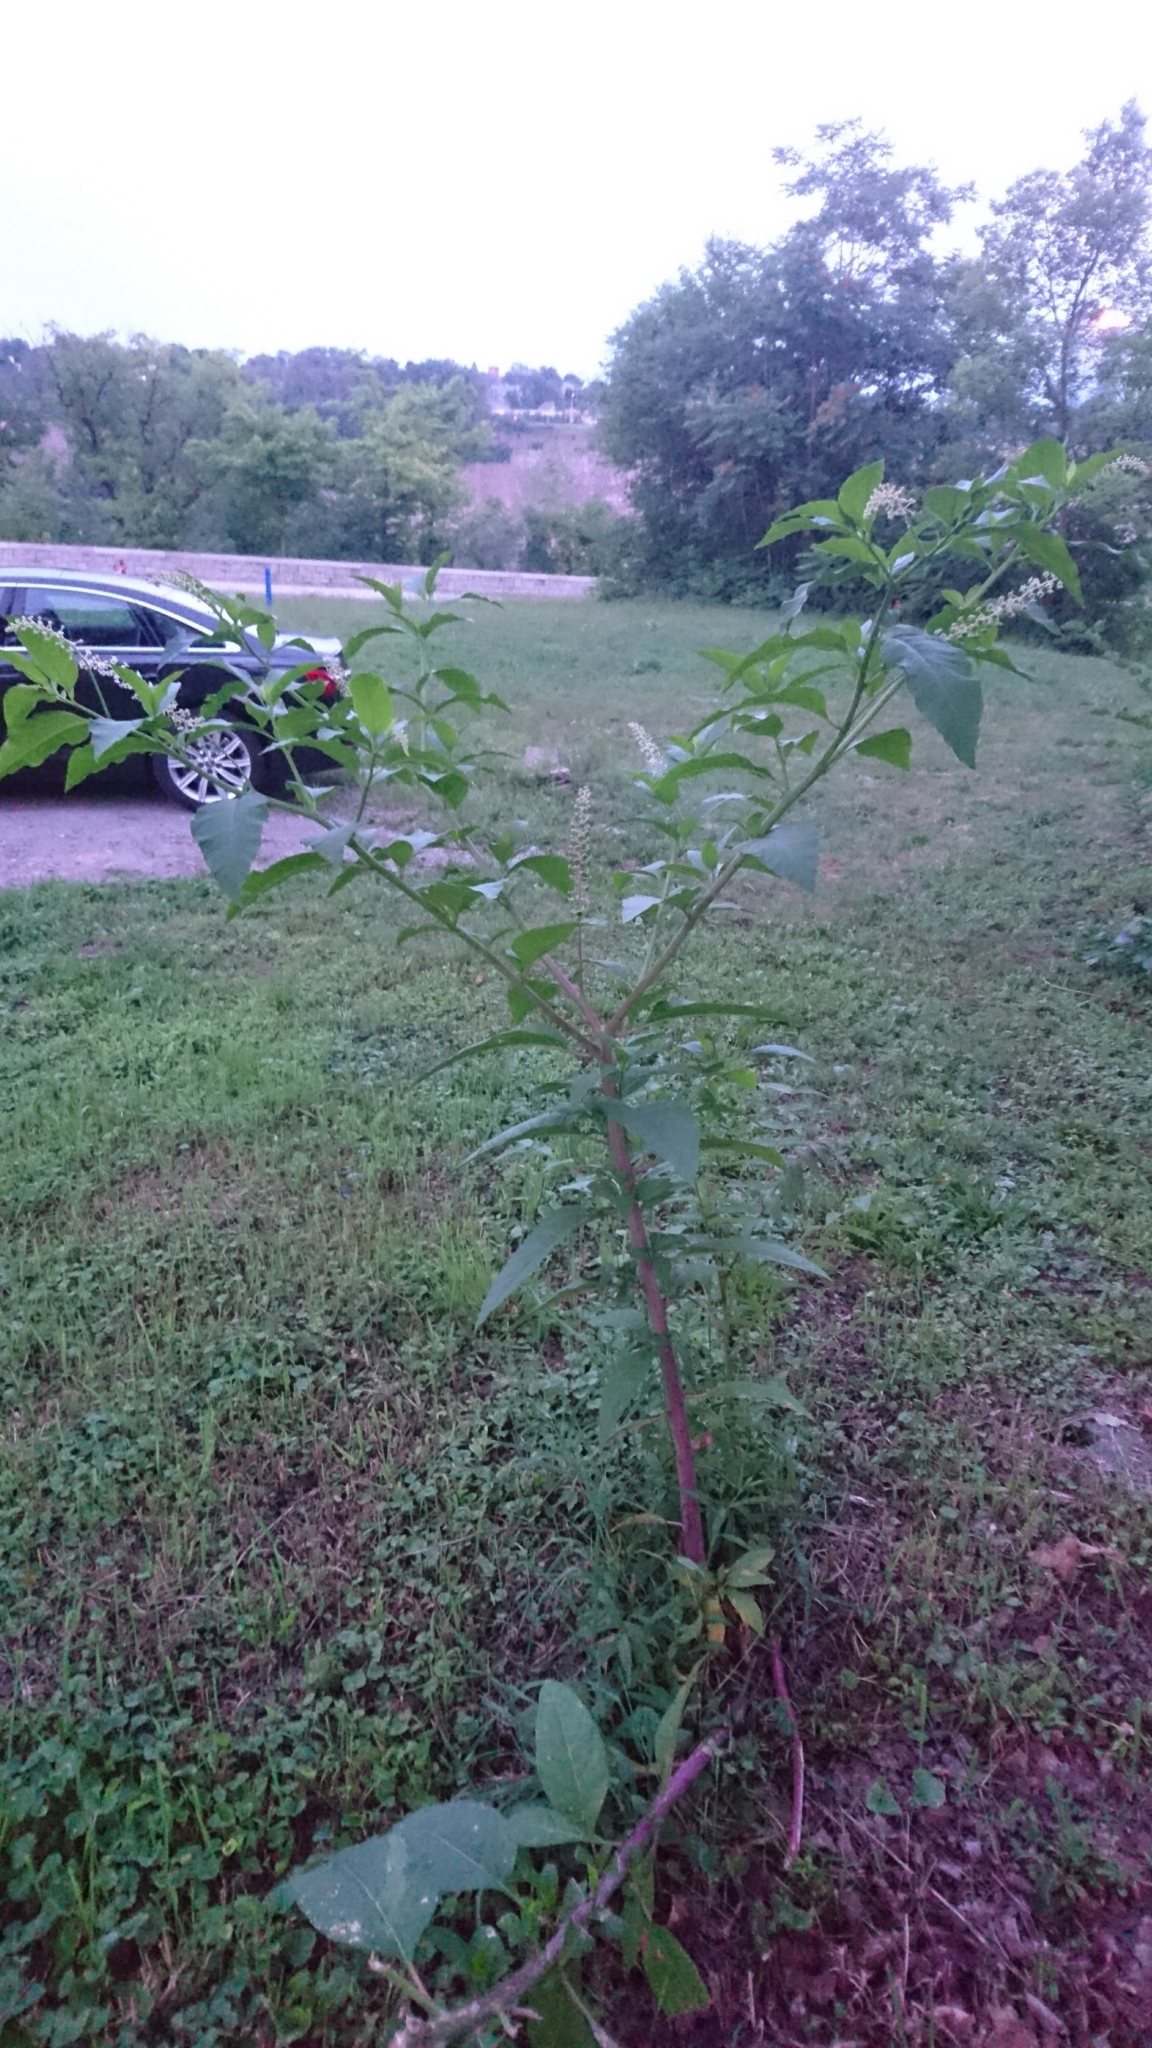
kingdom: Plantae
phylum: Tracheophyta
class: Magnoliopsida
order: Caryophyllales
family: Phytolaccaceae
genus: Phytolacca
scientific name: Phytolacca americana
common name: American pokeweed
